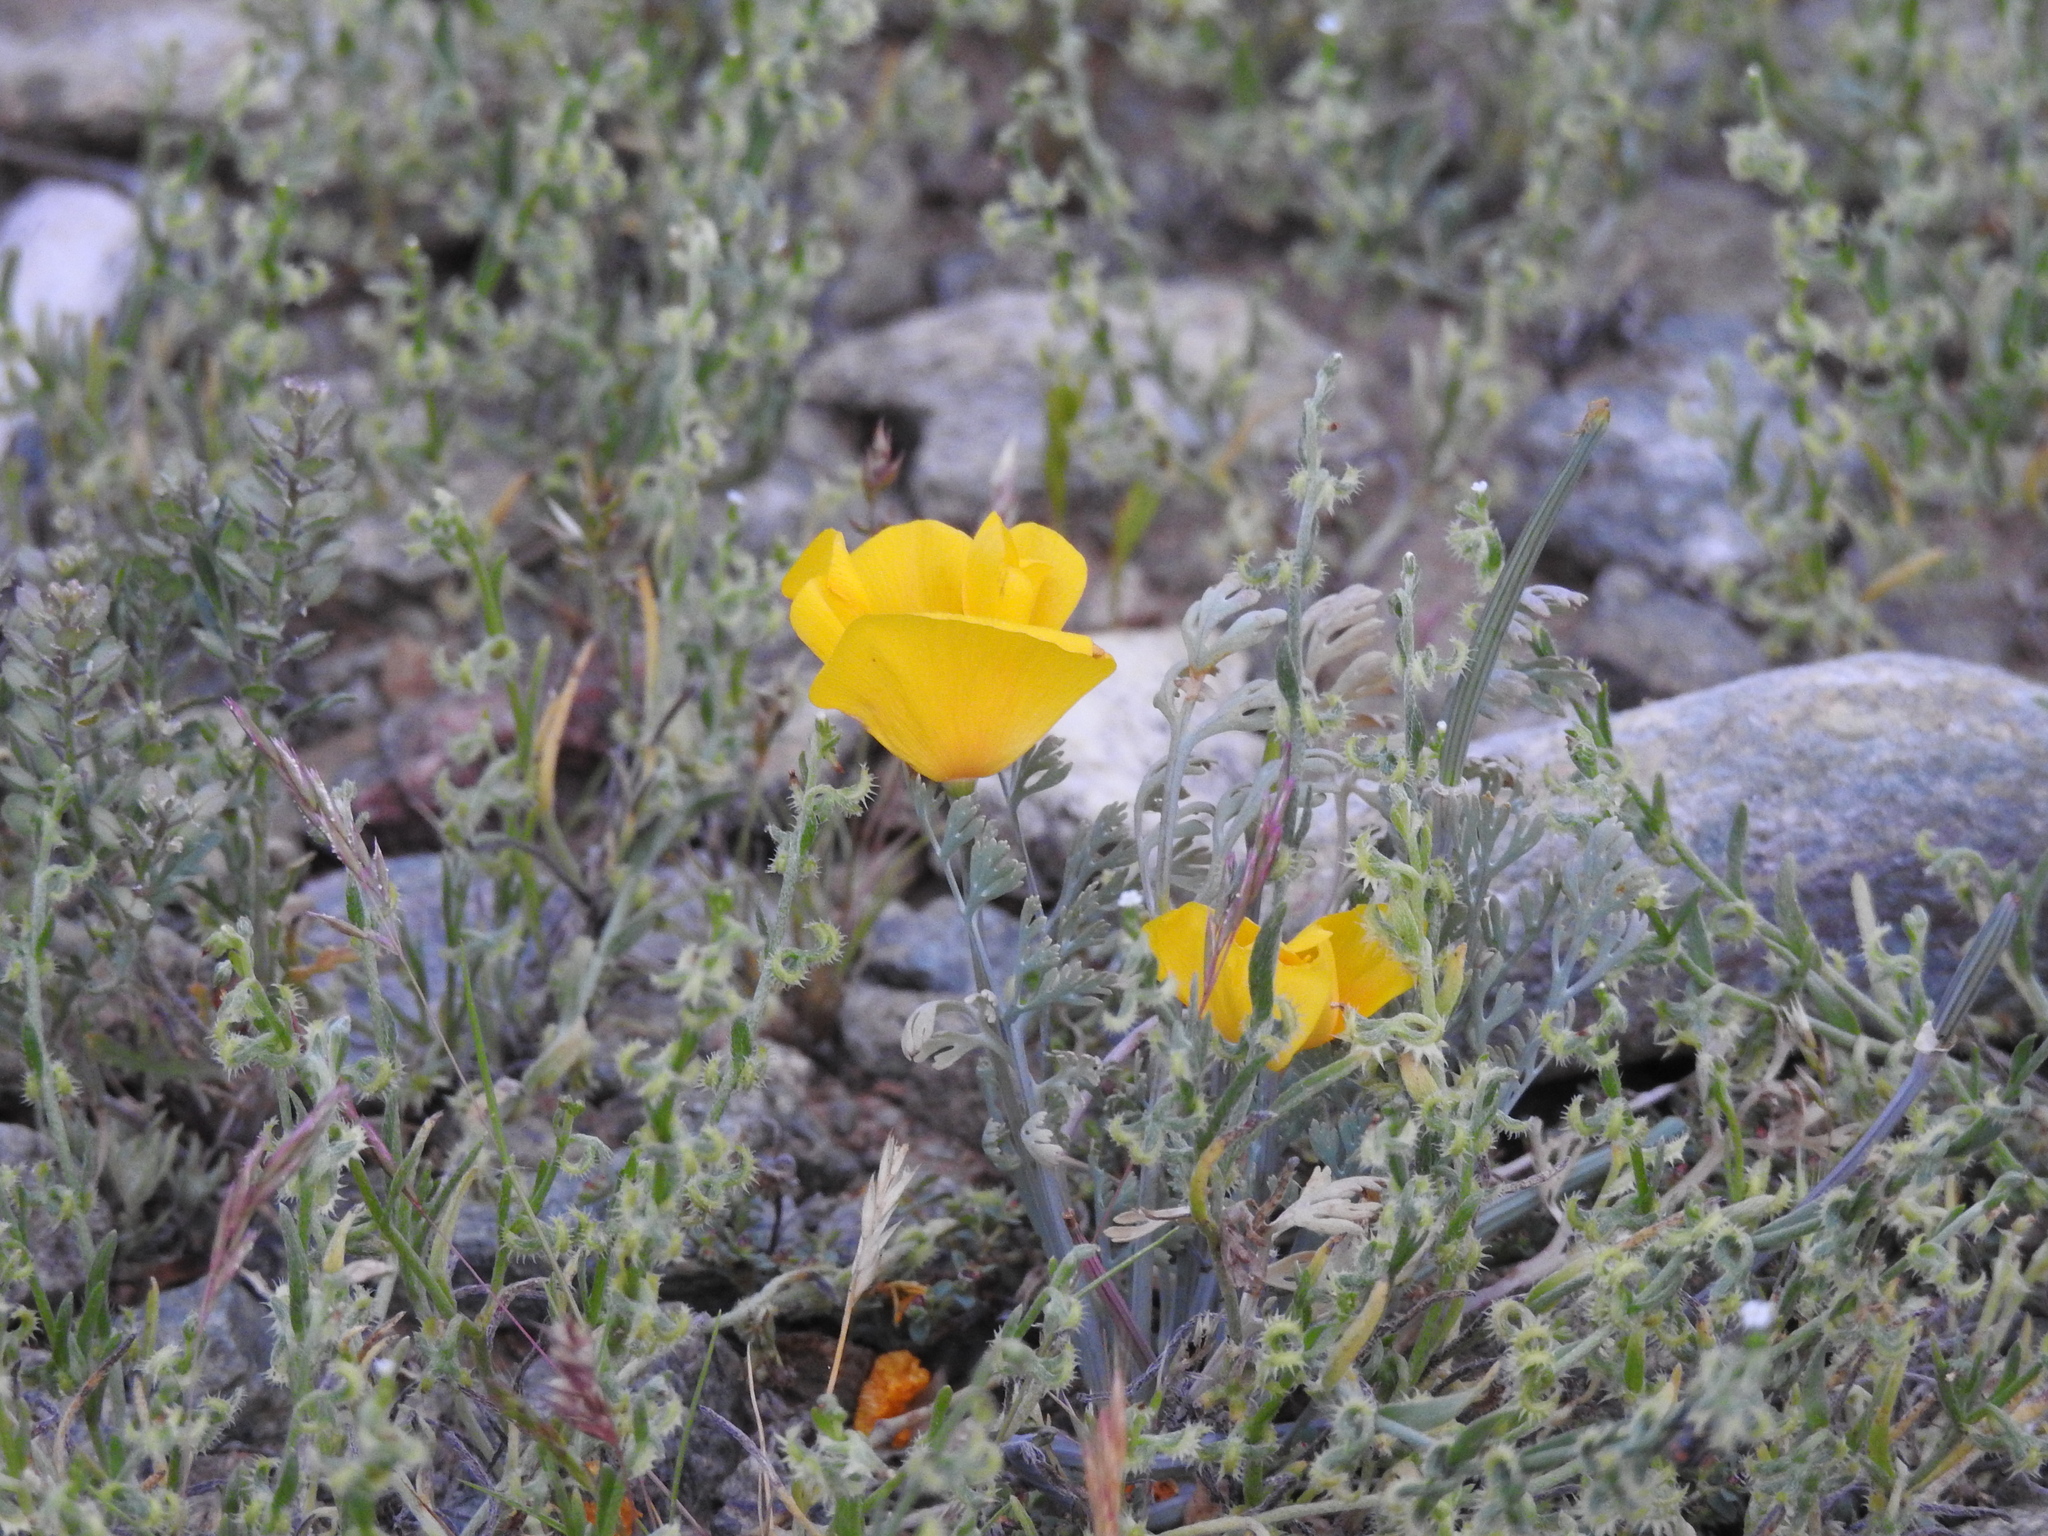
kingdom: Plantae
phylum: Tracheophyta
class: Magnoliopsida
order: Ranunculales
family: Papaveraceae
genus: Eschscholzia
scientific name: Eschscholzia californica
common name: California poppy
